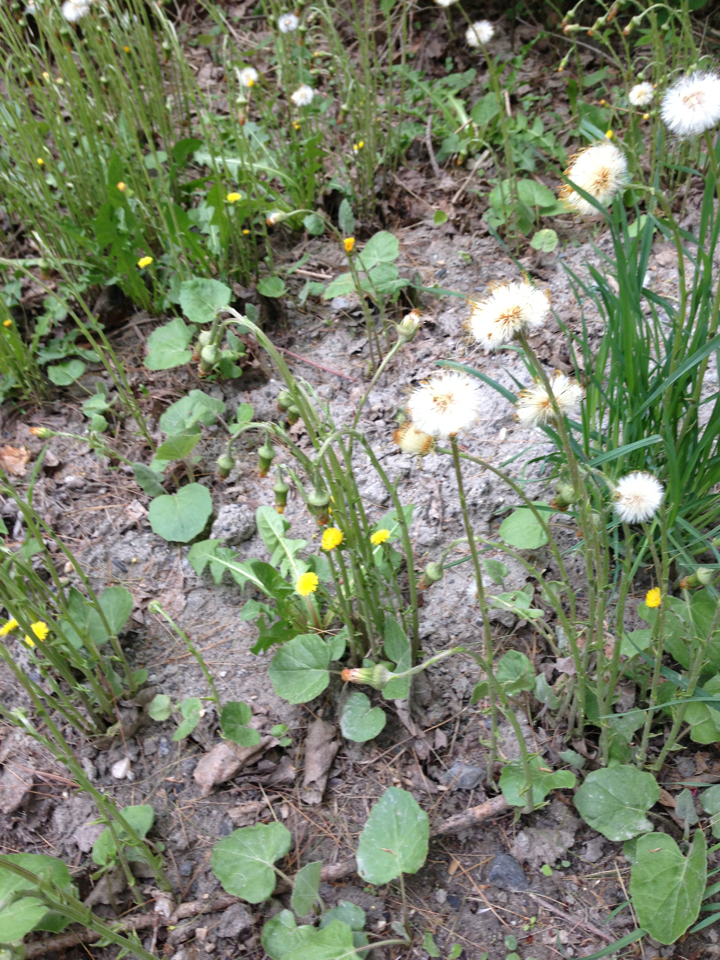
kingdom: Plantae
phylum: Tracheophyta
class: Magnoliopsida
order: Asterales
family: Asteraceae
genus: Tussilago
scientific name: Tussilago farfara
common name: Coltsfoot
